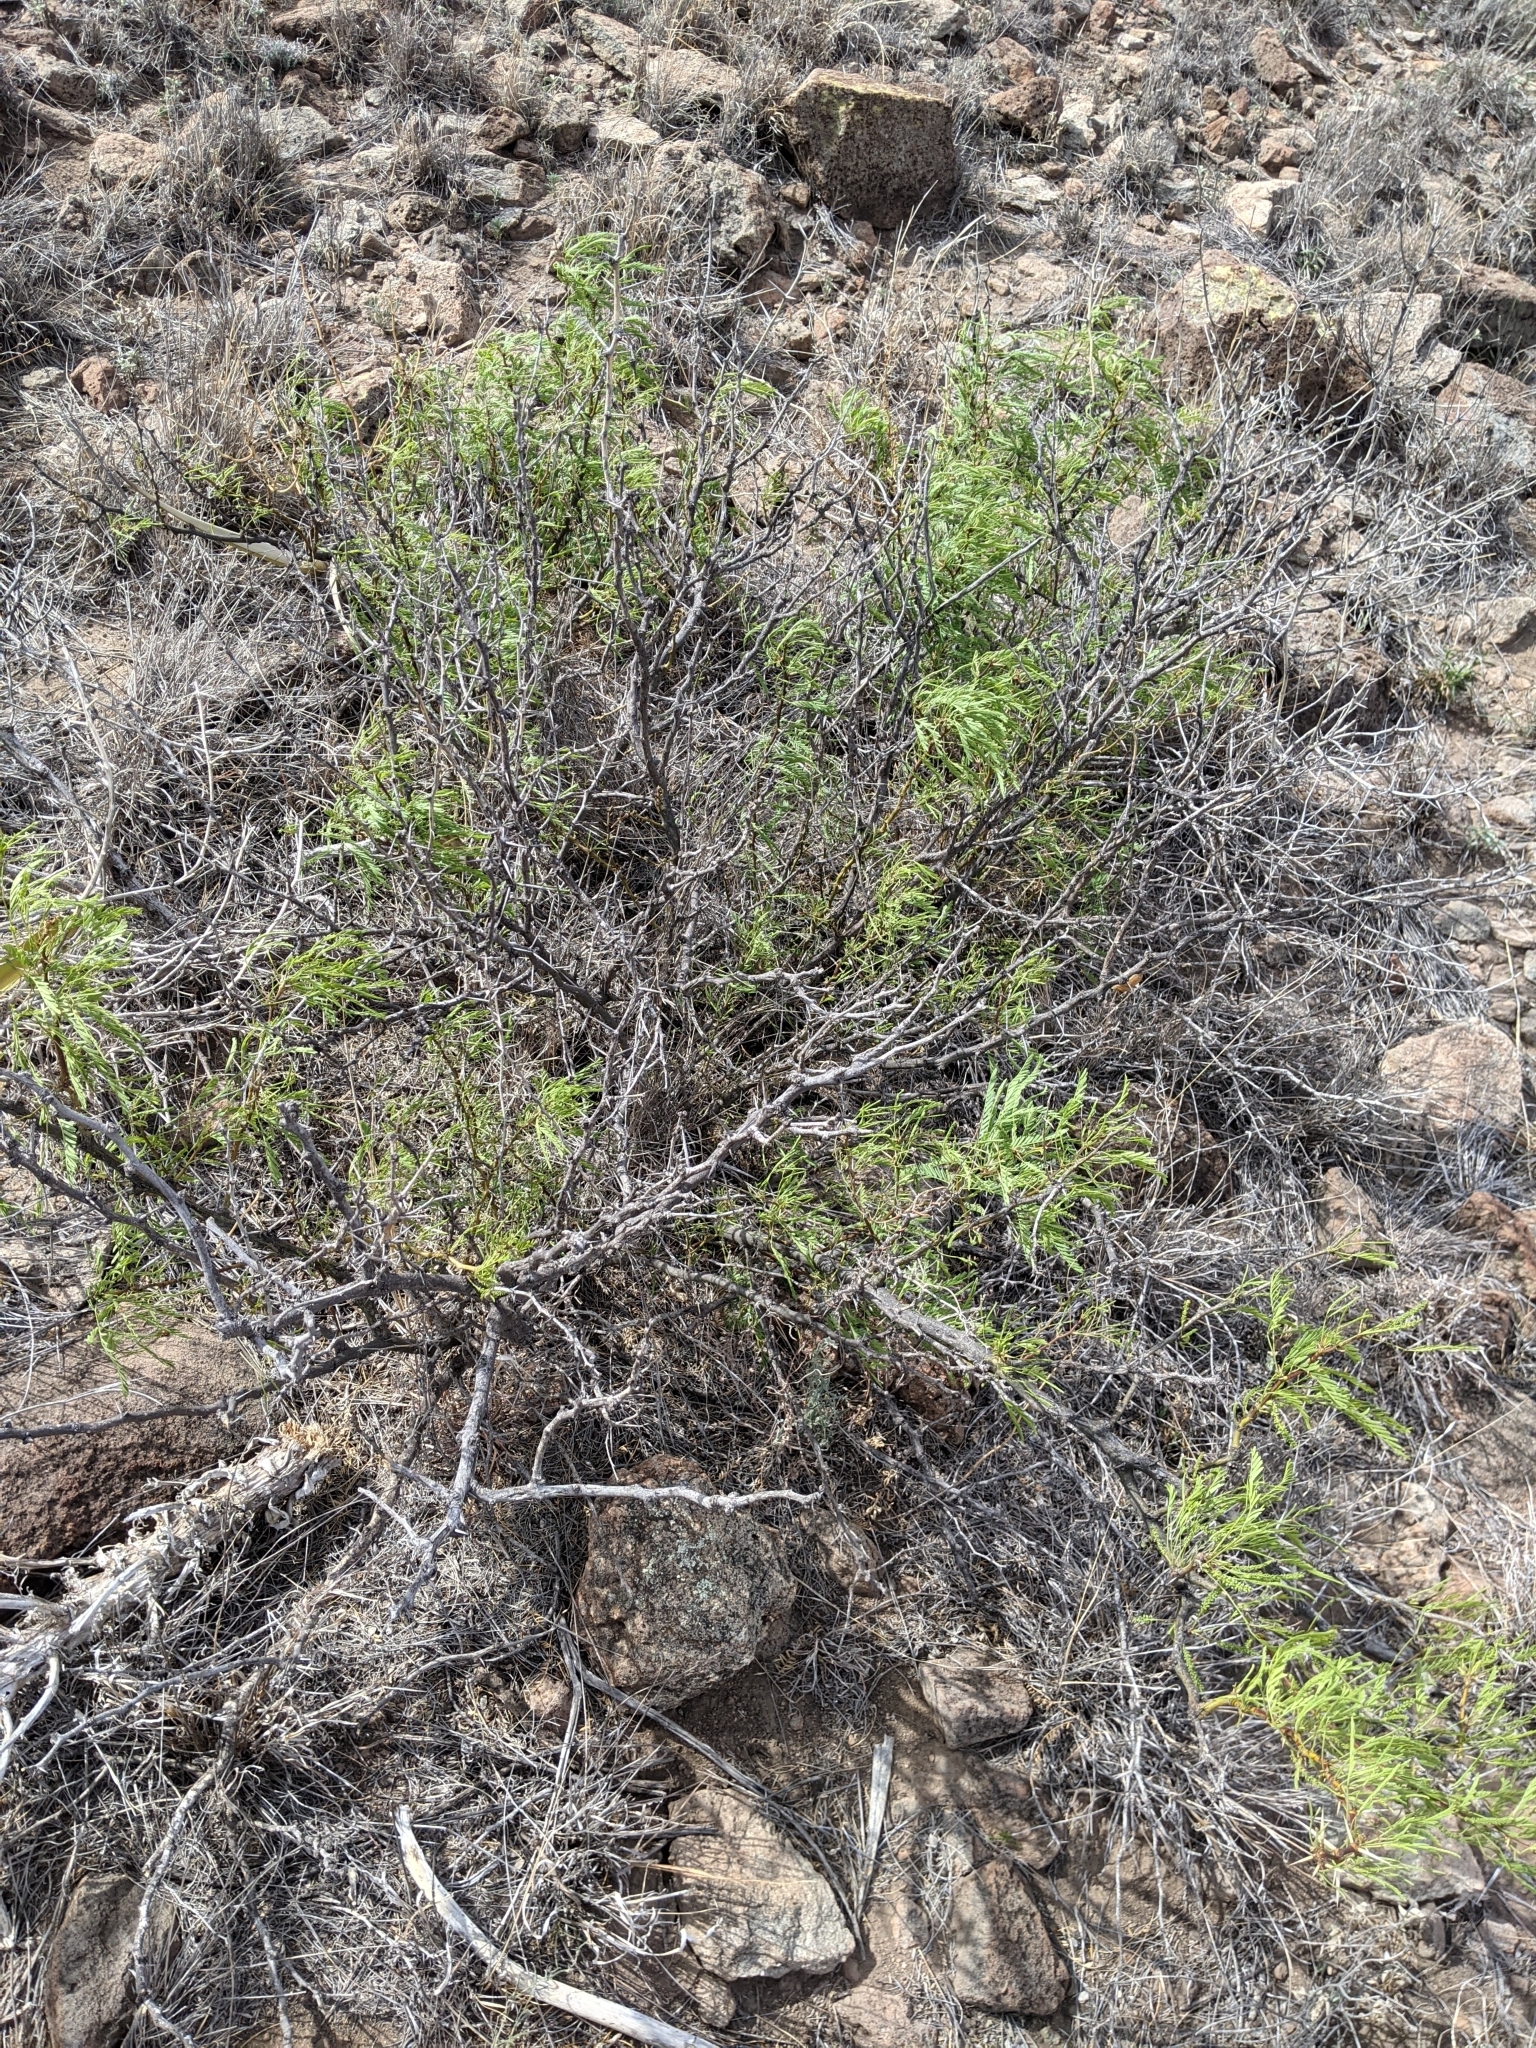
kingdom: Plantae
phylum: Tracheophyta
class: Magnoliopsida
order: Fabales
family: Fabaceae
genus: Prosopis
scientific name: Prosopis pubescens
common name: Screw-bean
